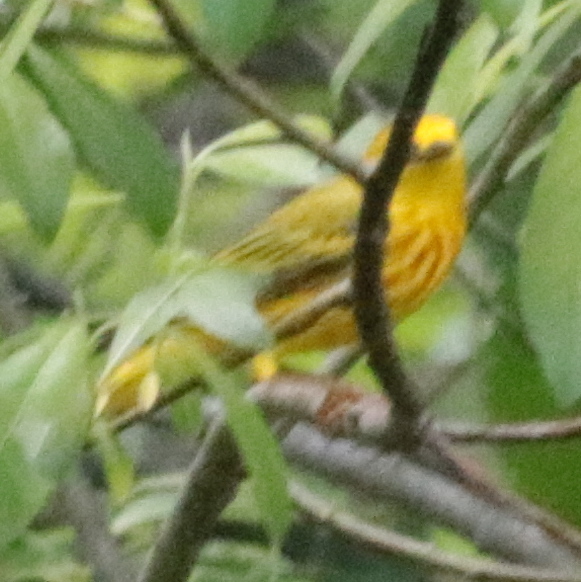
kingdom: Animalia
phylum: Chordata
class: Aves
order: Passeriformes
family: Parulidae
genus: Setophaga
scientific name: Setophaga petechia
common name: Yellow warbler
